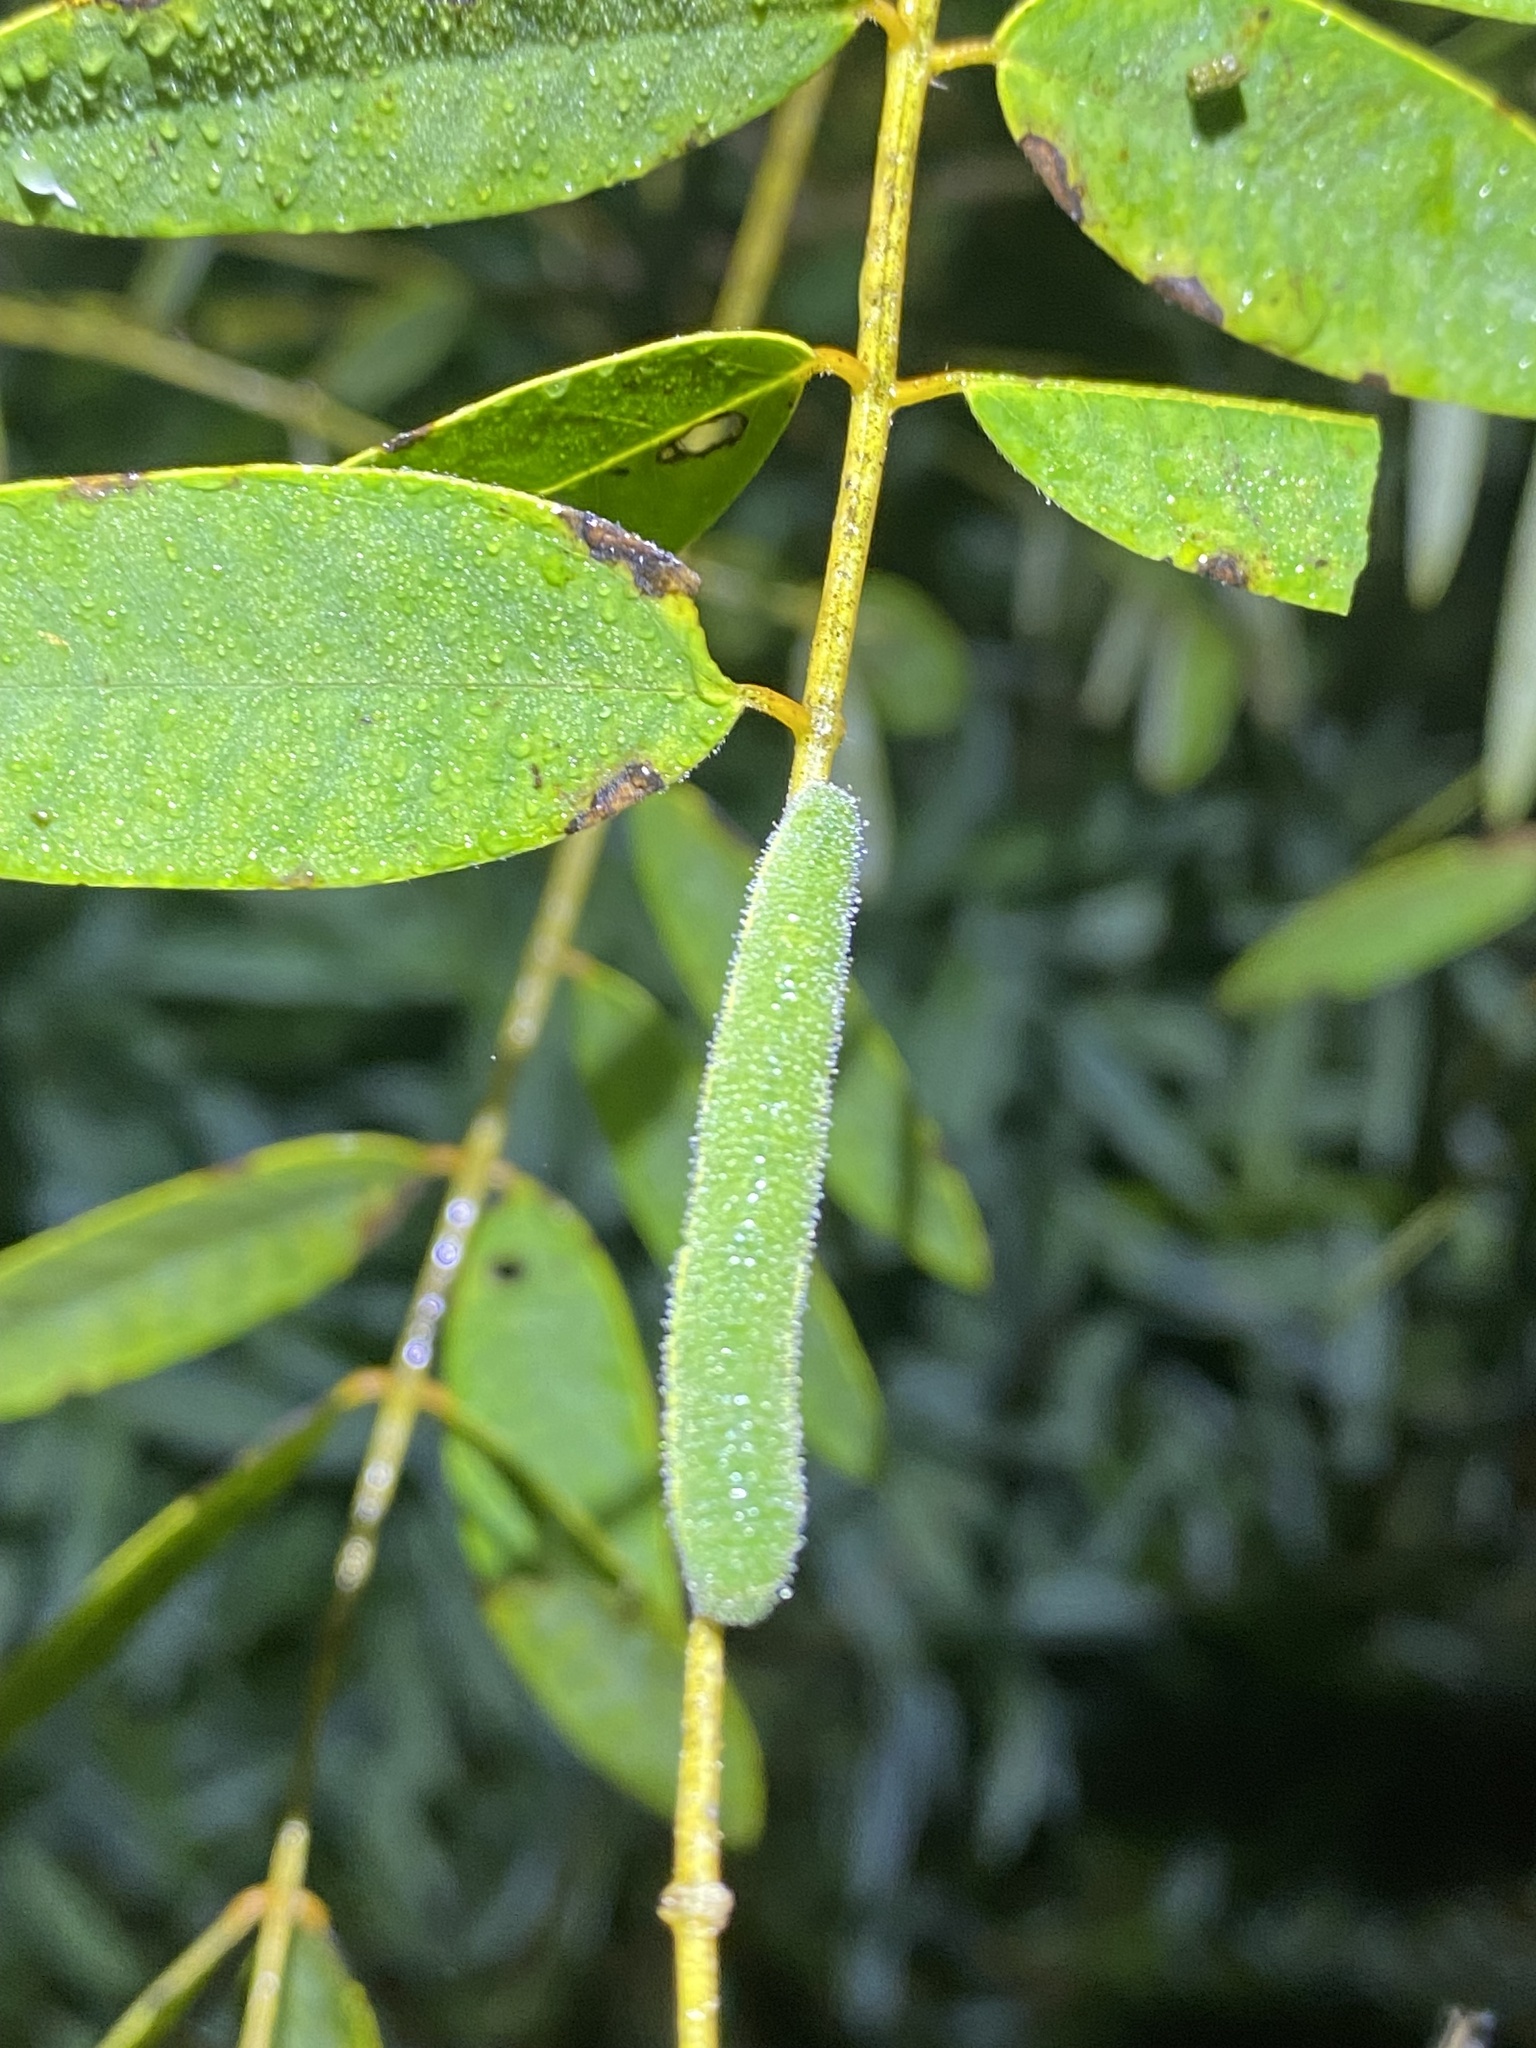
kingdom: Animalia
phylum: Arthropoda
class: Insecta
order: Lepidoptera
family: Pieridae
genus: Abaeis
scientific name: Abaeis nicippe
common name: Sleepy orange
